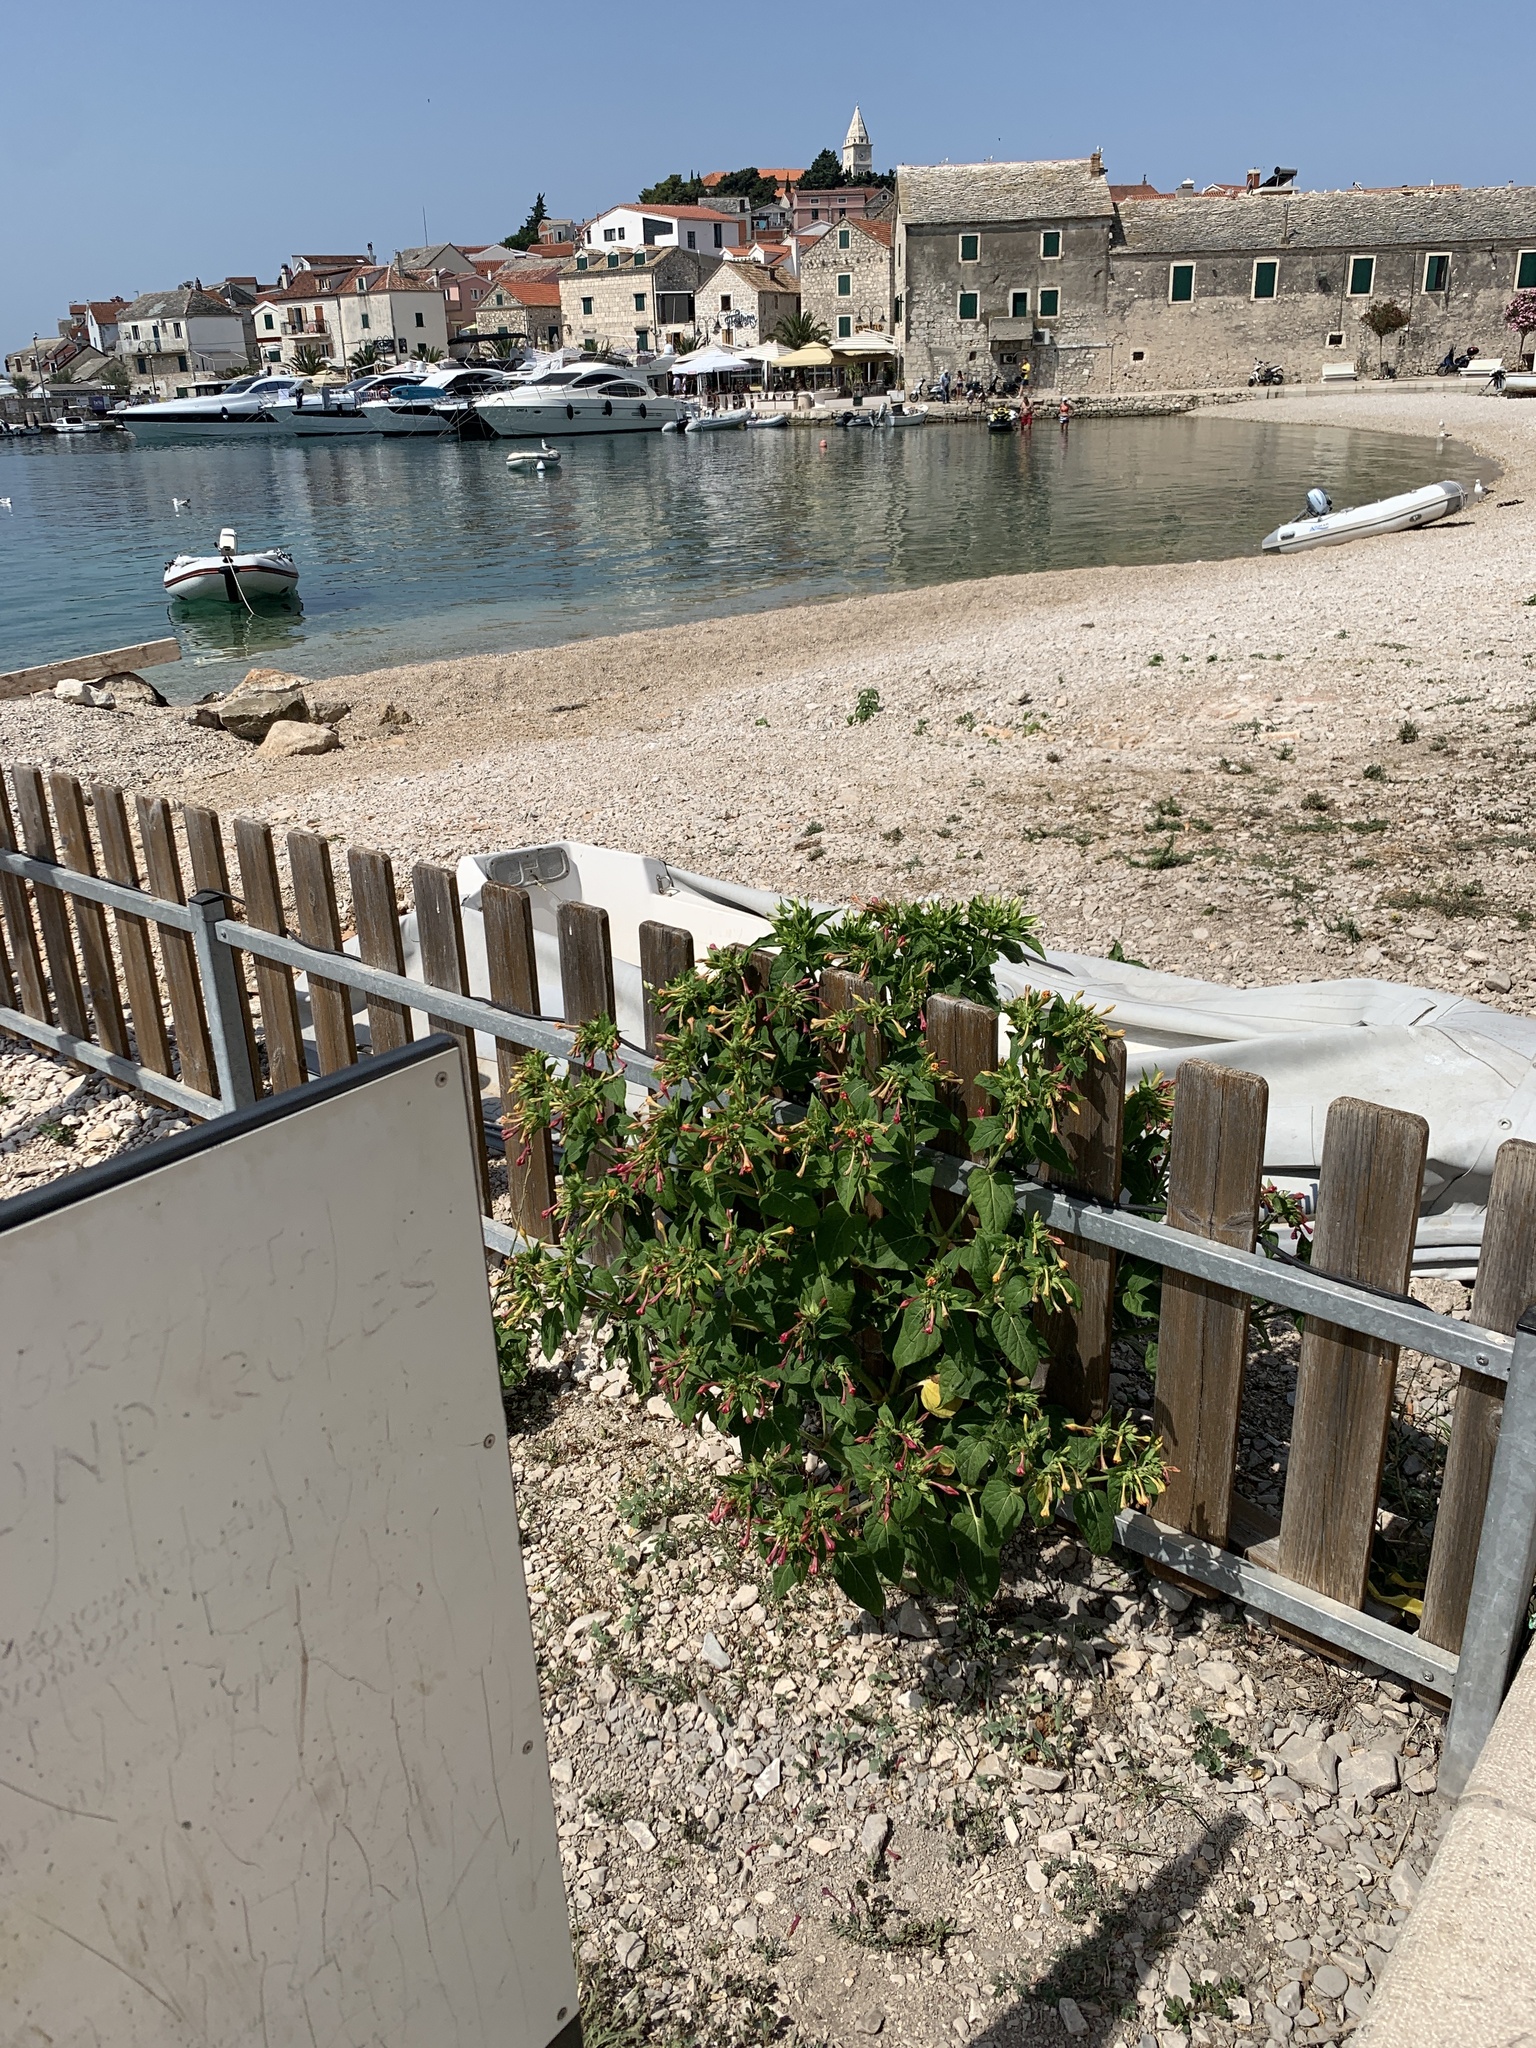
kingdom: Plantae
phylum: Tracheophyta
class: Magnoliopsida
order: Caryophyllales
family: Nyctaginaceae
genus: Mirabilis
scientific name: Mirabilis jalapa
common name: Marvel-of-peru
